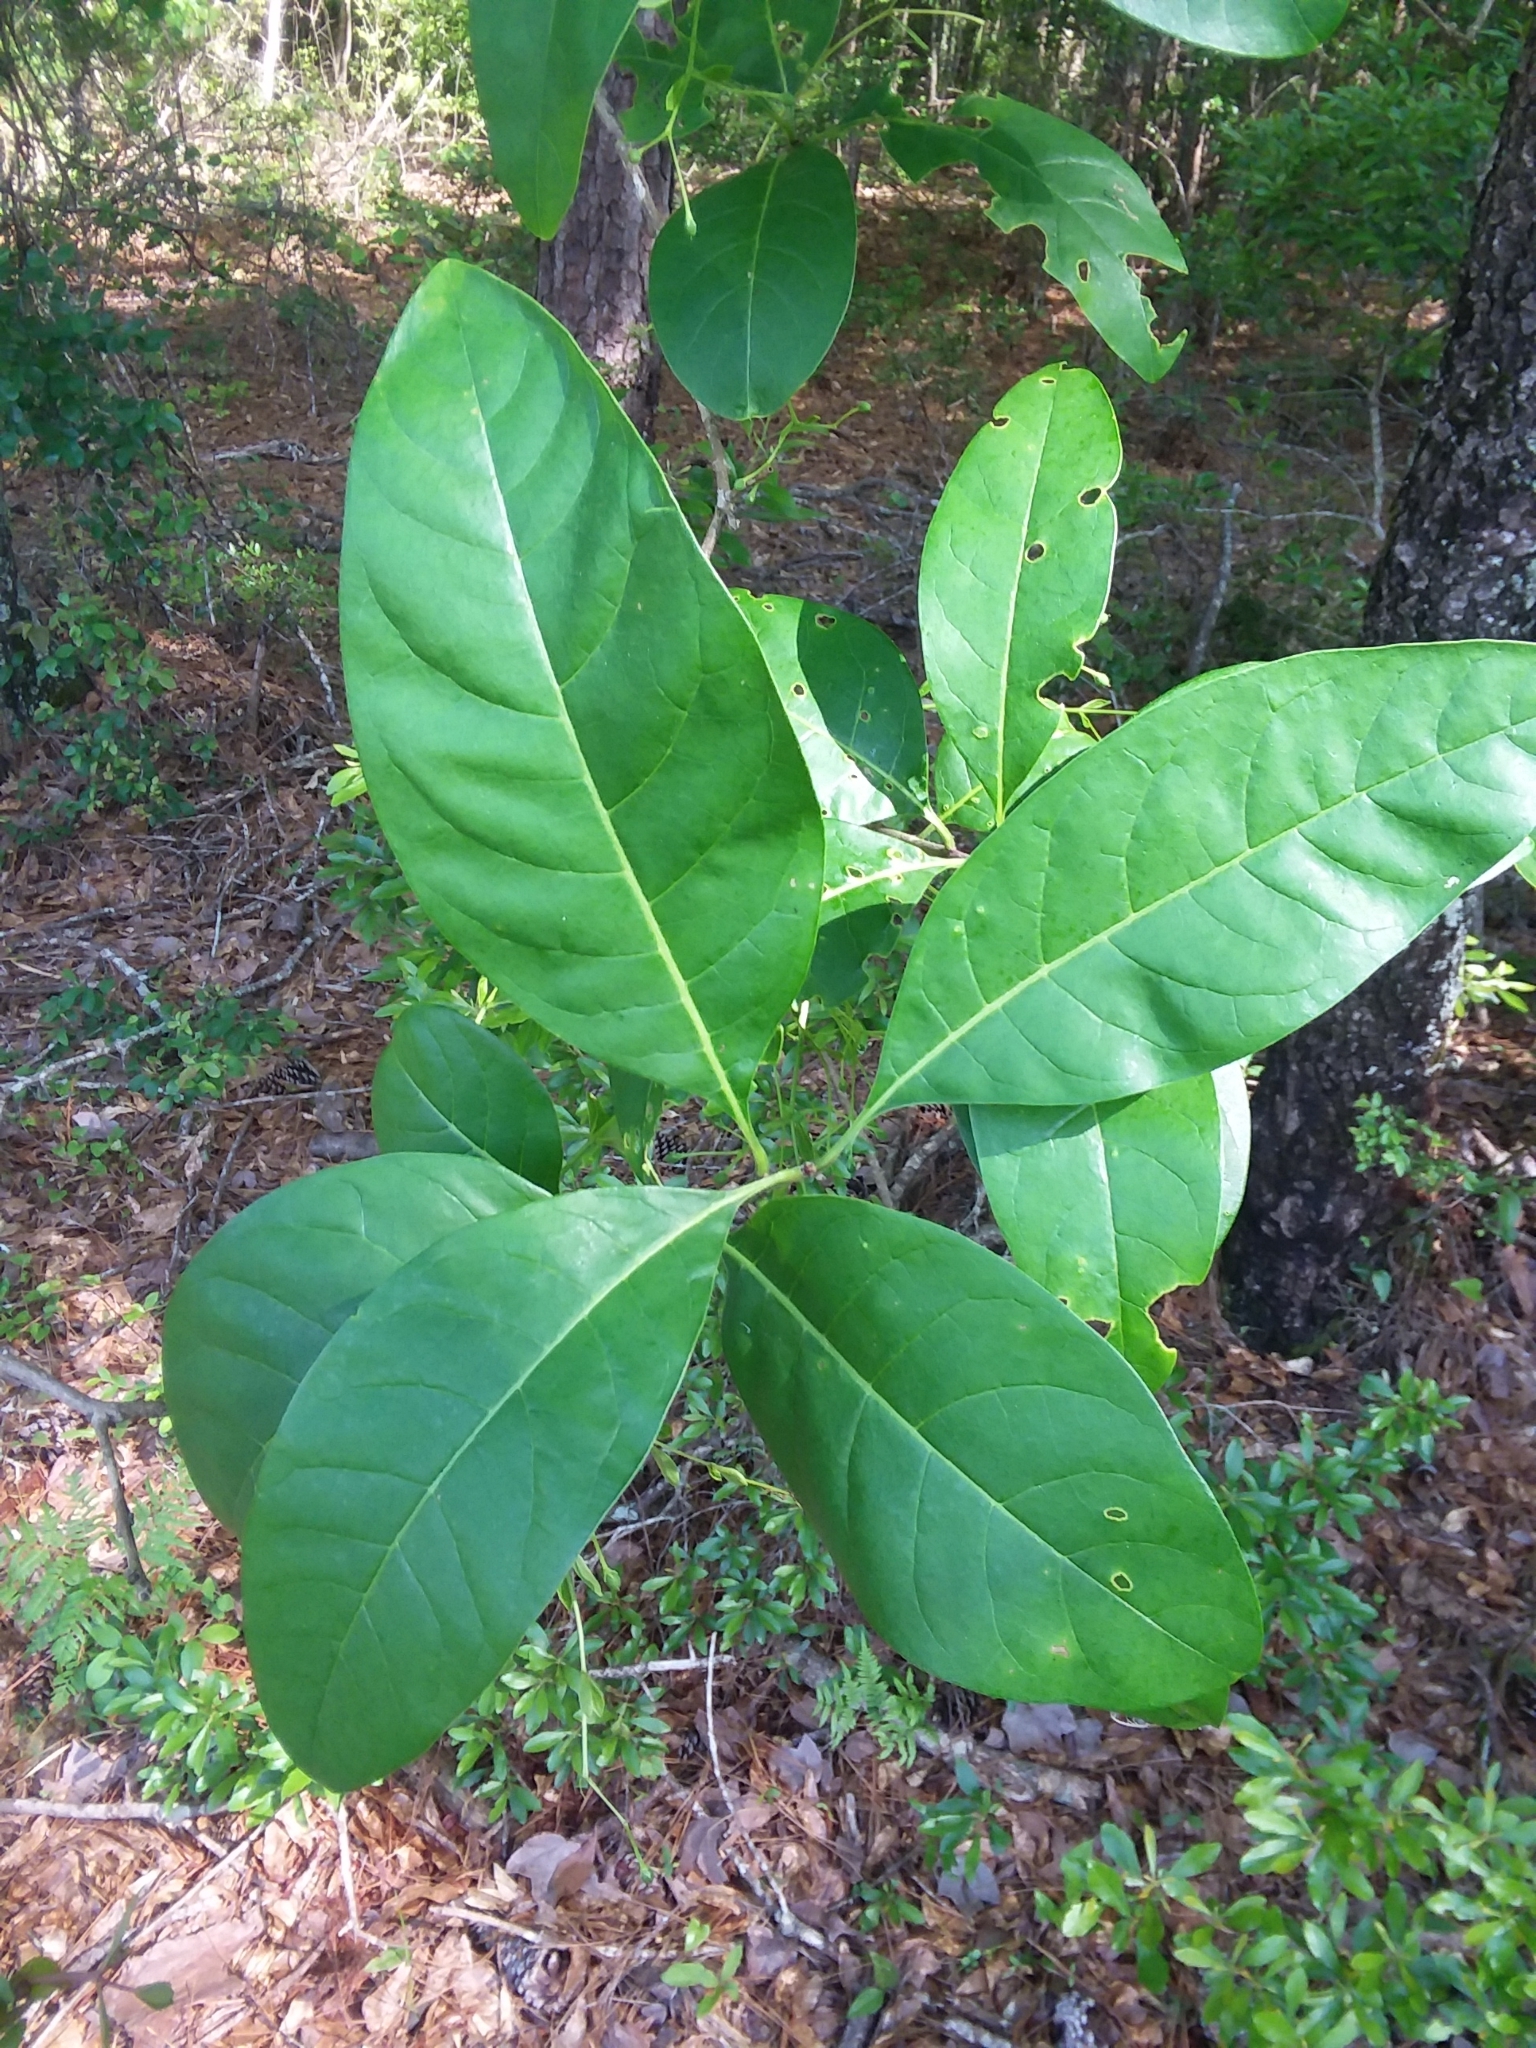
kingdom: Plantae
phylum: Tracheophyta
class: Magnoliopsida
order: Lamiales
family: Oleaceae
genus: Chionanthus
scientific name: Chionanthus virginicus
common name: American fringetree
